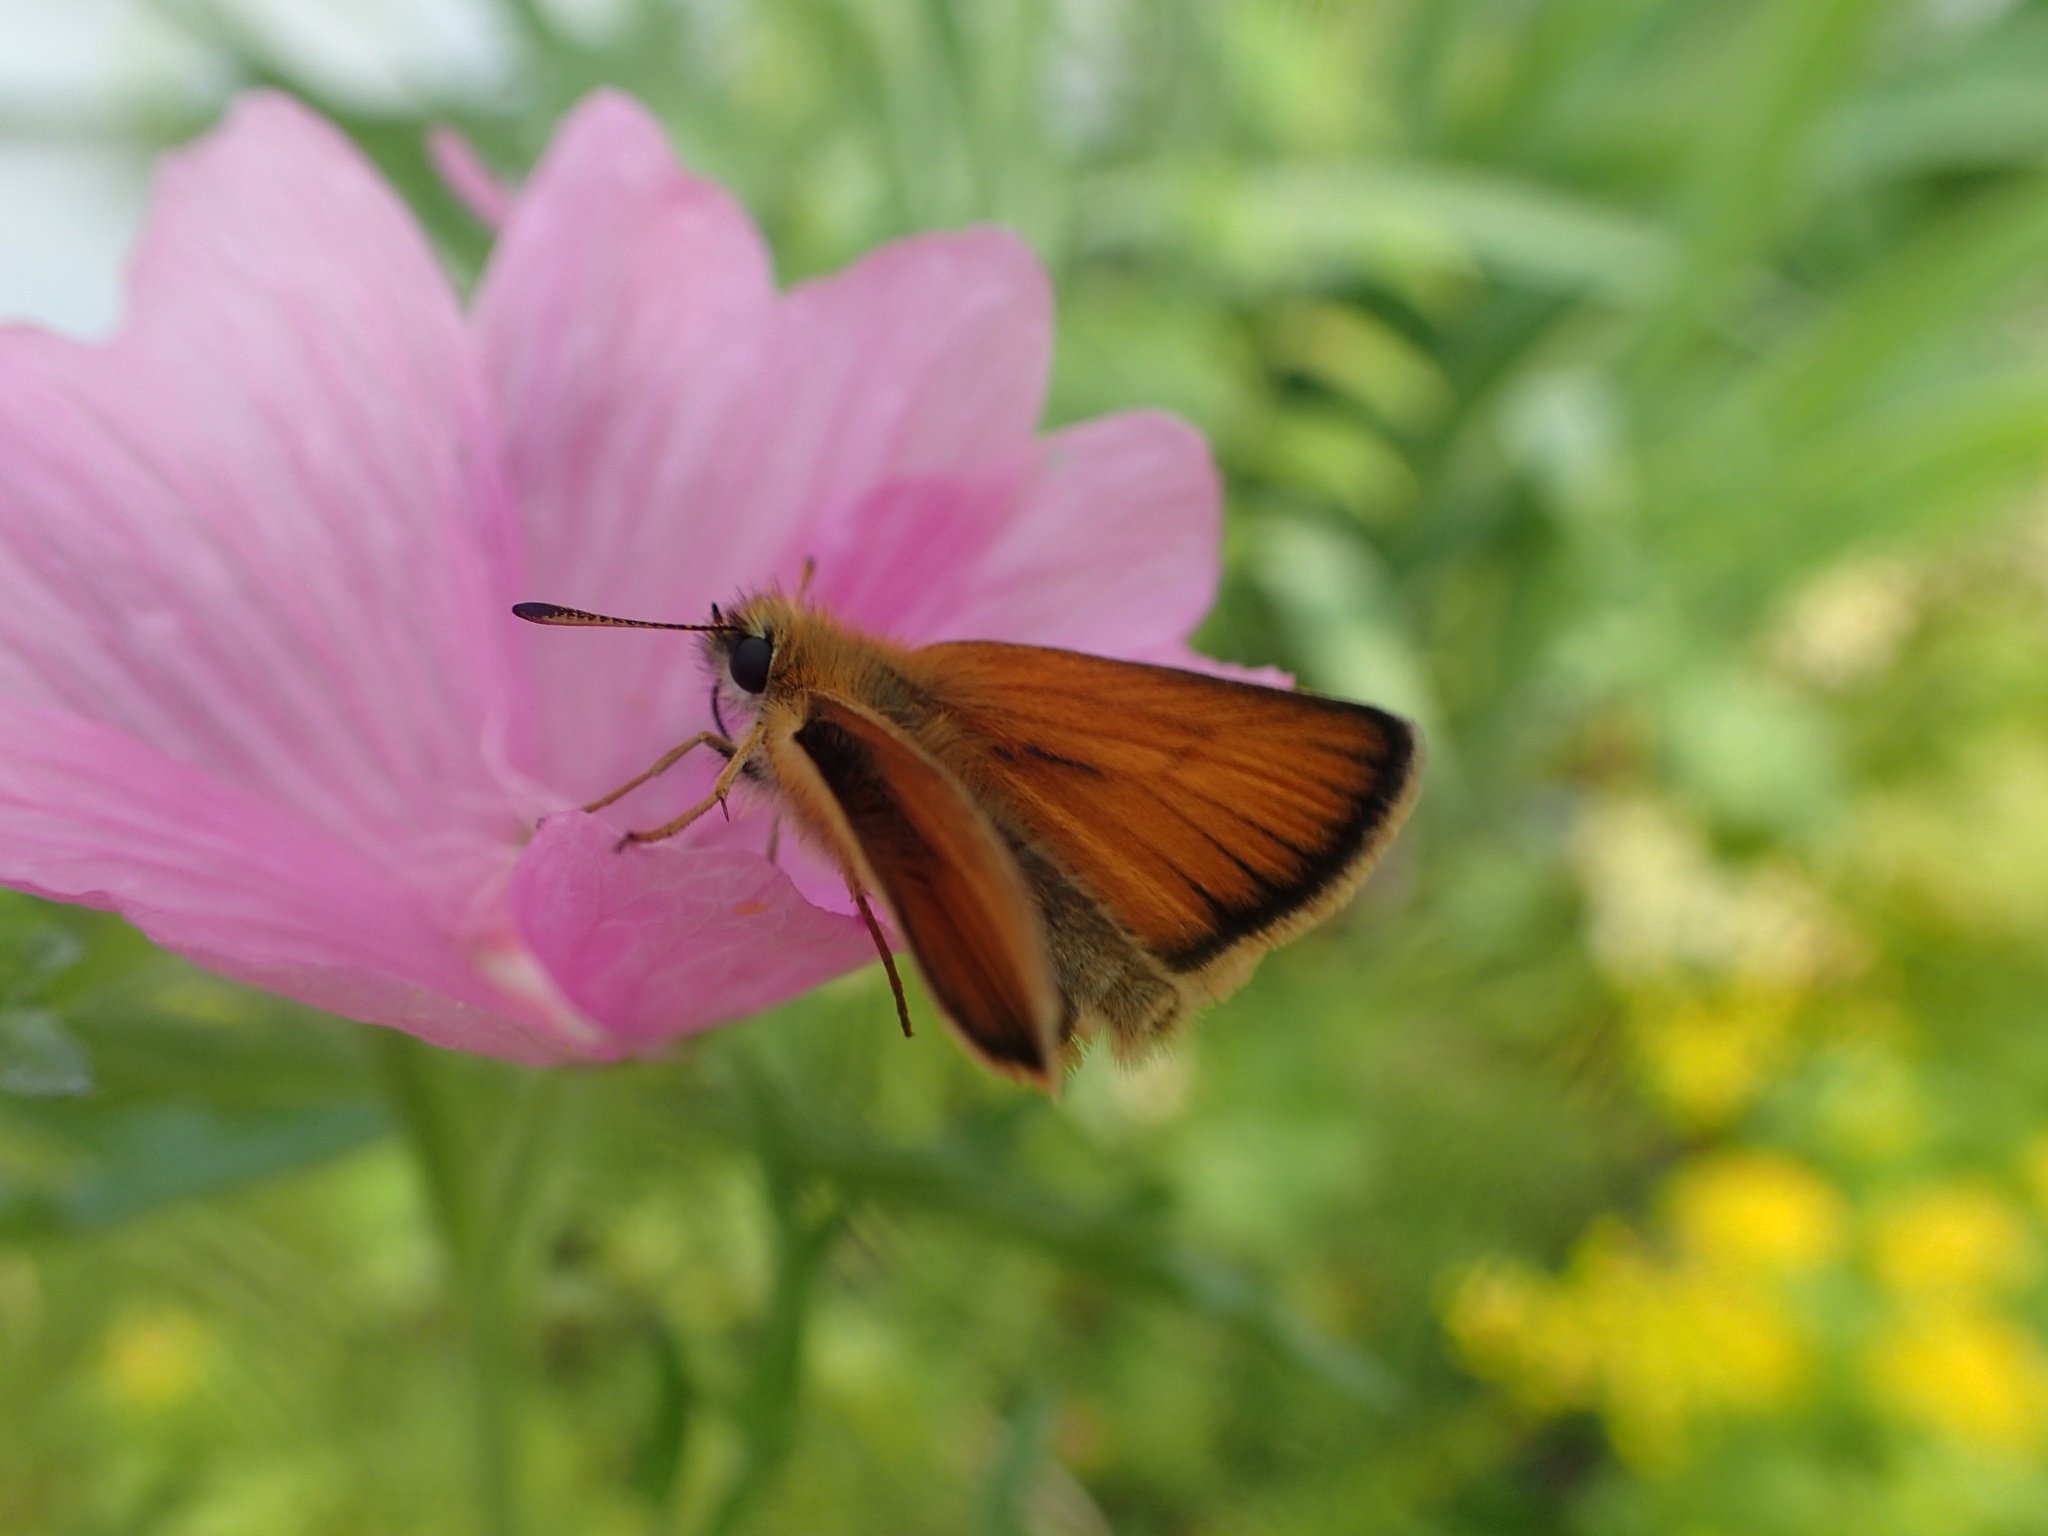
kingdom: Animalia
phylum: Arthropoda
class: Insecta
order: Lepidoptera
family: Hesperiidae
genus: Thymelicus
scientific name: Thymelicus lineola
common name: Essex skipper
